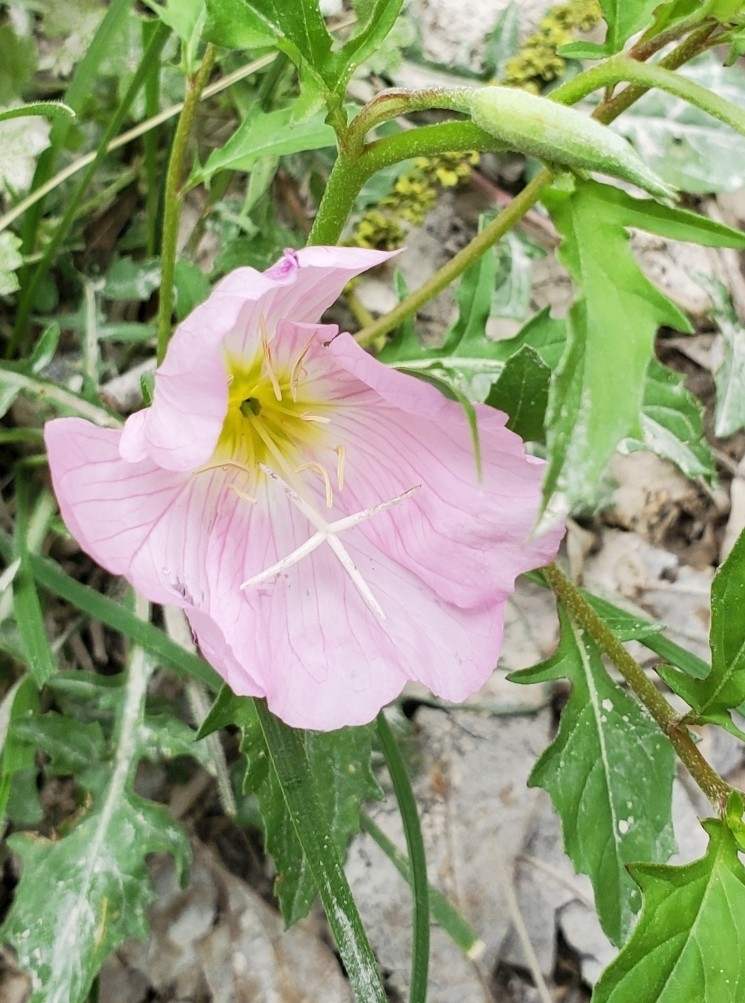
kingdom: Plantae
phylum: Tracheophyta
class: Magnoliopsida
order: Myrtales
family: Onagraceae
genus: Oenothera
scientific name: Oenothera speciosa
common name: White evening-primrose
